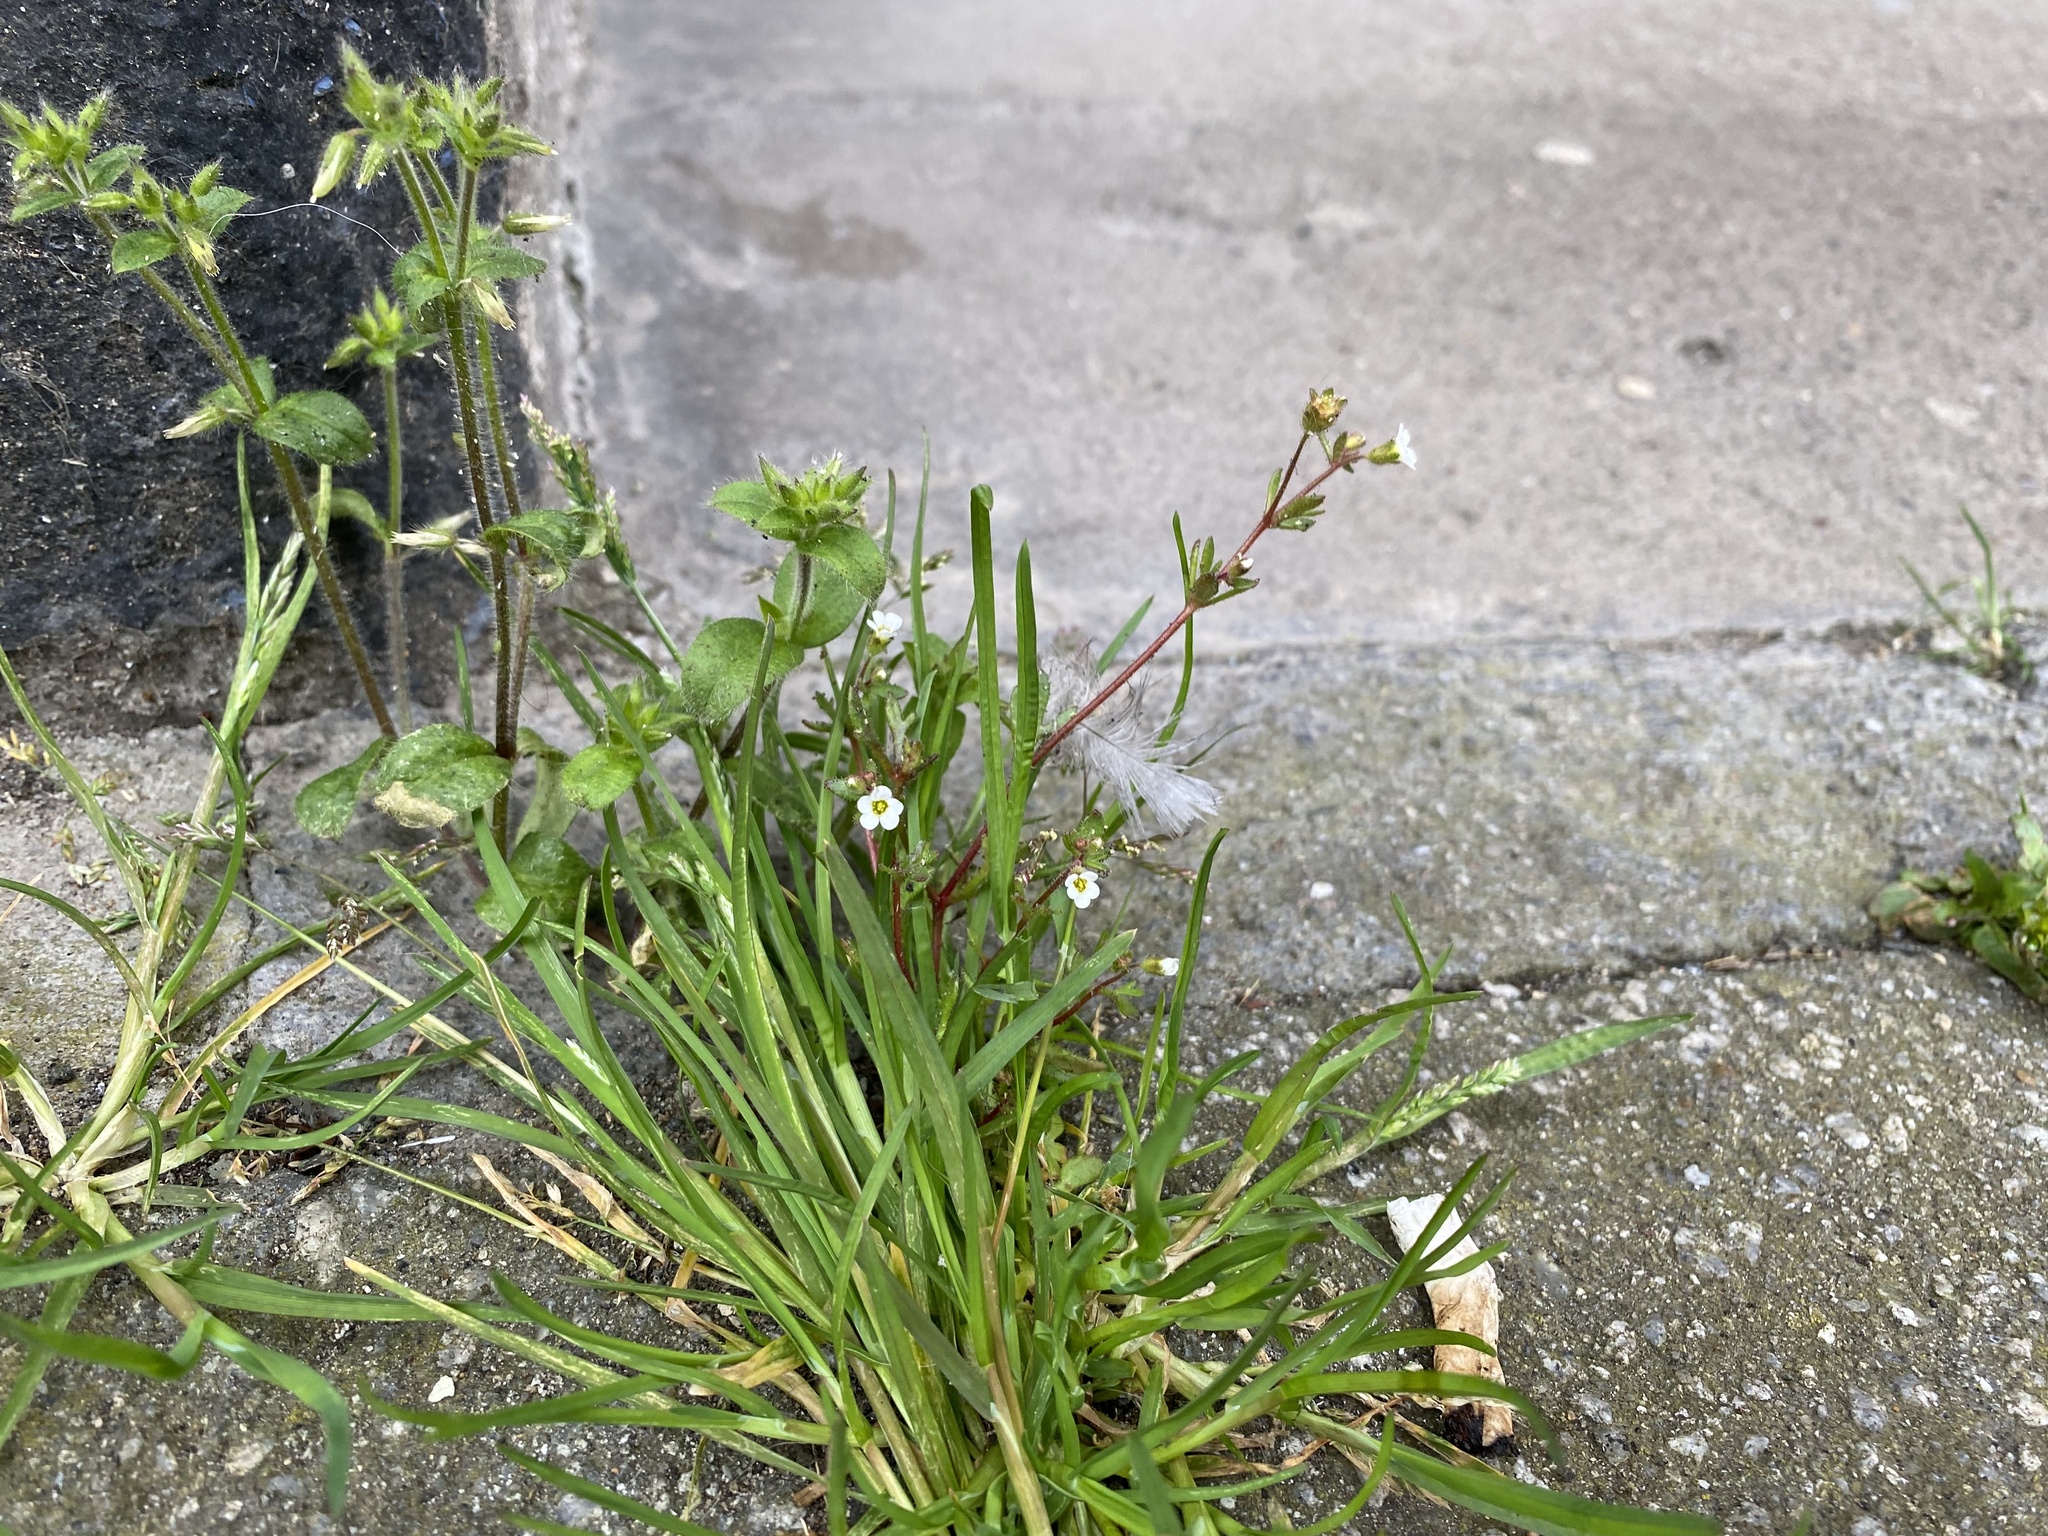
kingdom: Plantae
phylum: Tracheophyta
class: Magnoliopsida
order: Saxifragales
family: Saxifragaceae
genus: Saxifraga
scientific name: Saxifraga tridactylites
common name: Rue-leaved saxifrage
